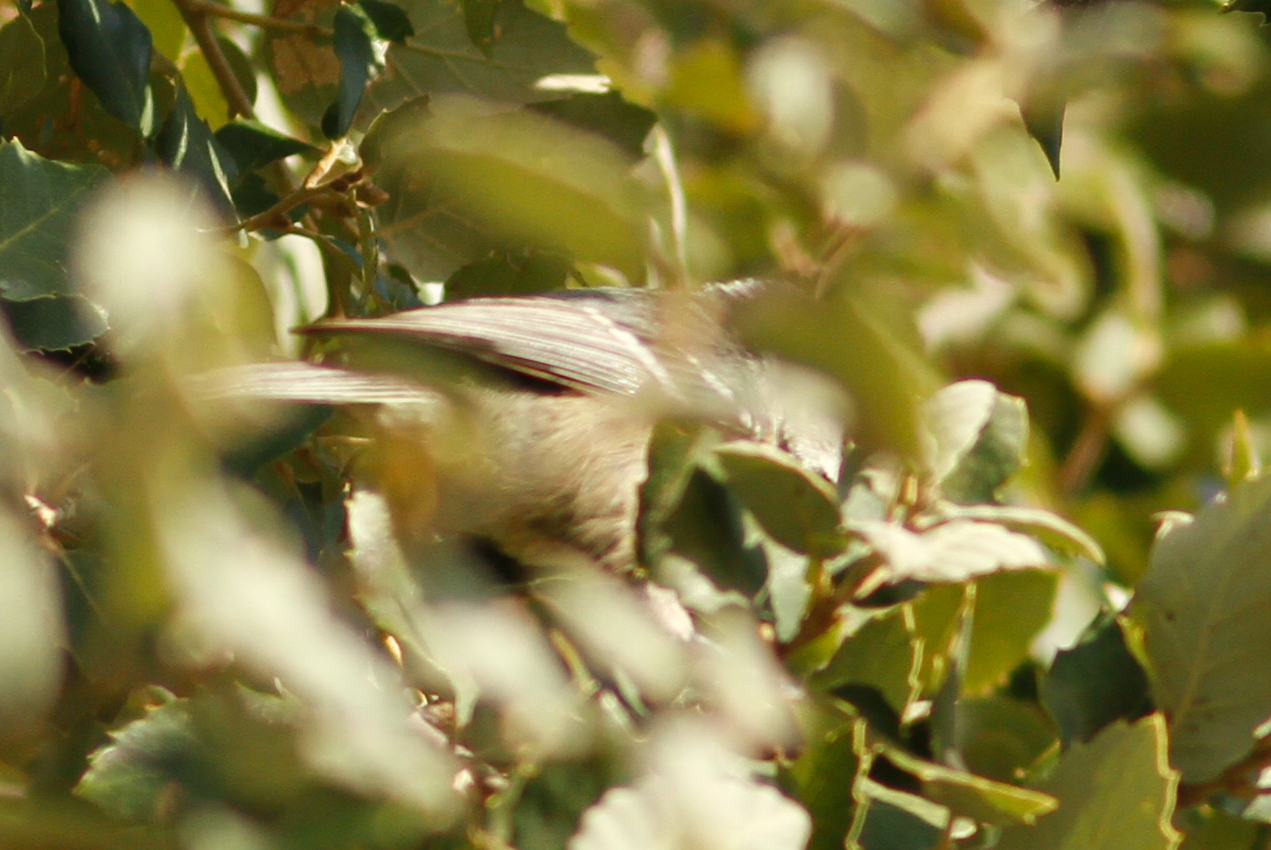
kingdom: Animalia
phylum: Chordata
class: Aves
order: Passeriformes
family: Paridae
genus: Periparus
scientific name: Periparus ater
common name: Coal tit
